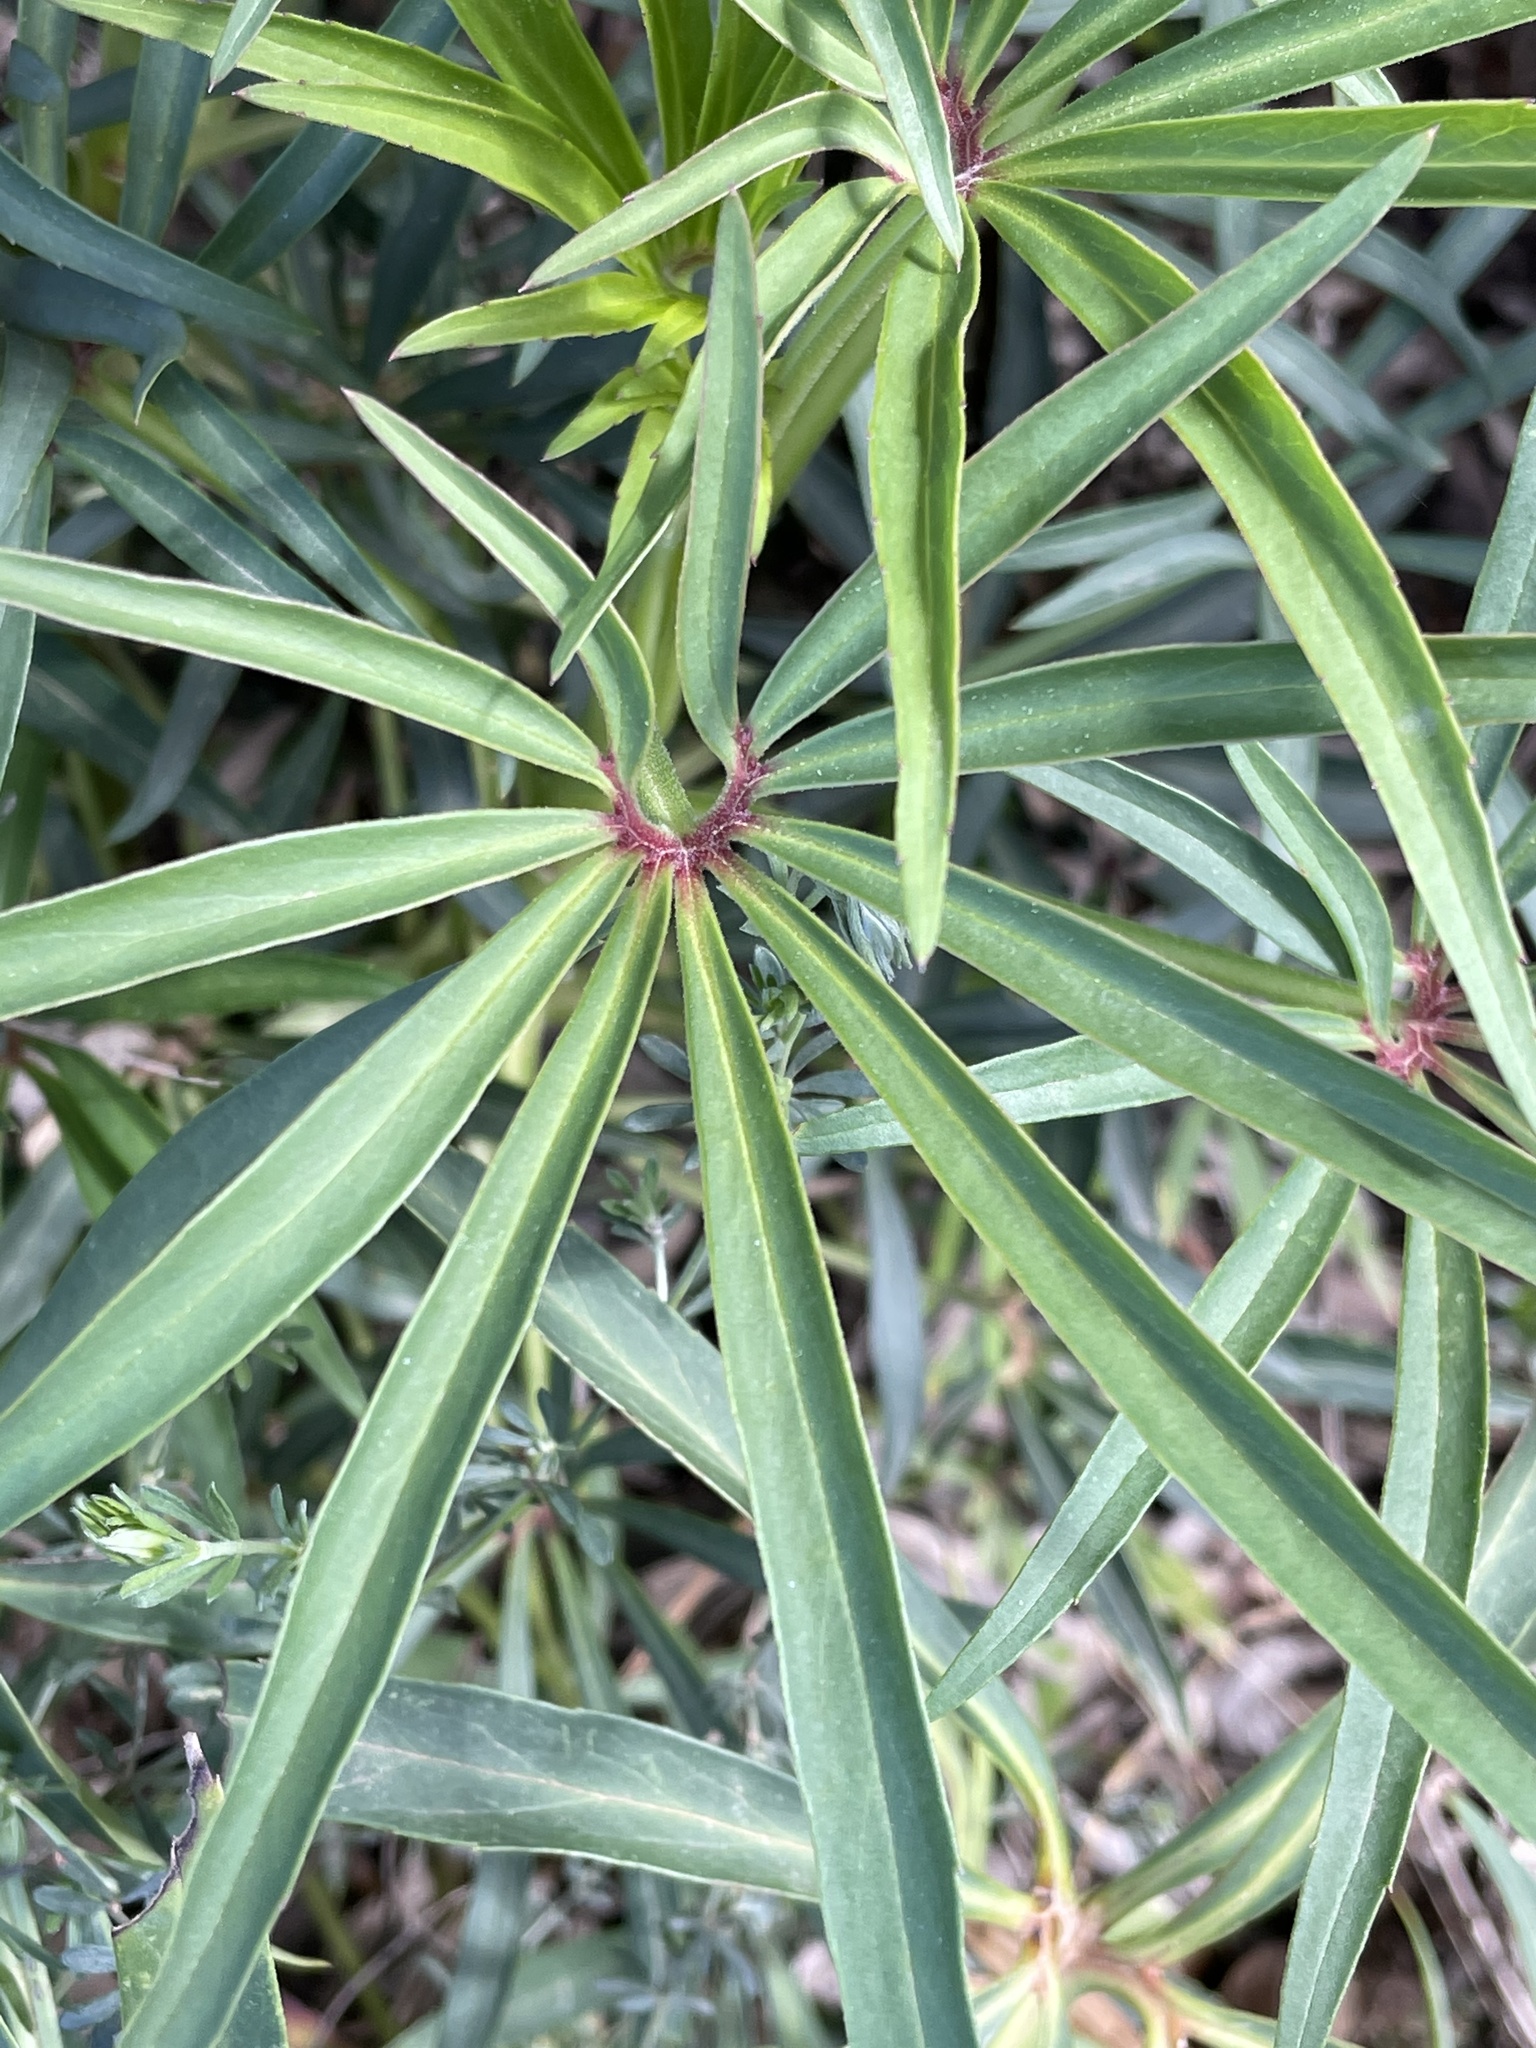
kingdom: Plantae
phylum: Tracheophyta
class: Magnoliopsida
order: Ranunculales
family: Ranunculaceae
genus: Helleborus
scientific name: Helleborus foetidus
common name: Stinking hellebore
